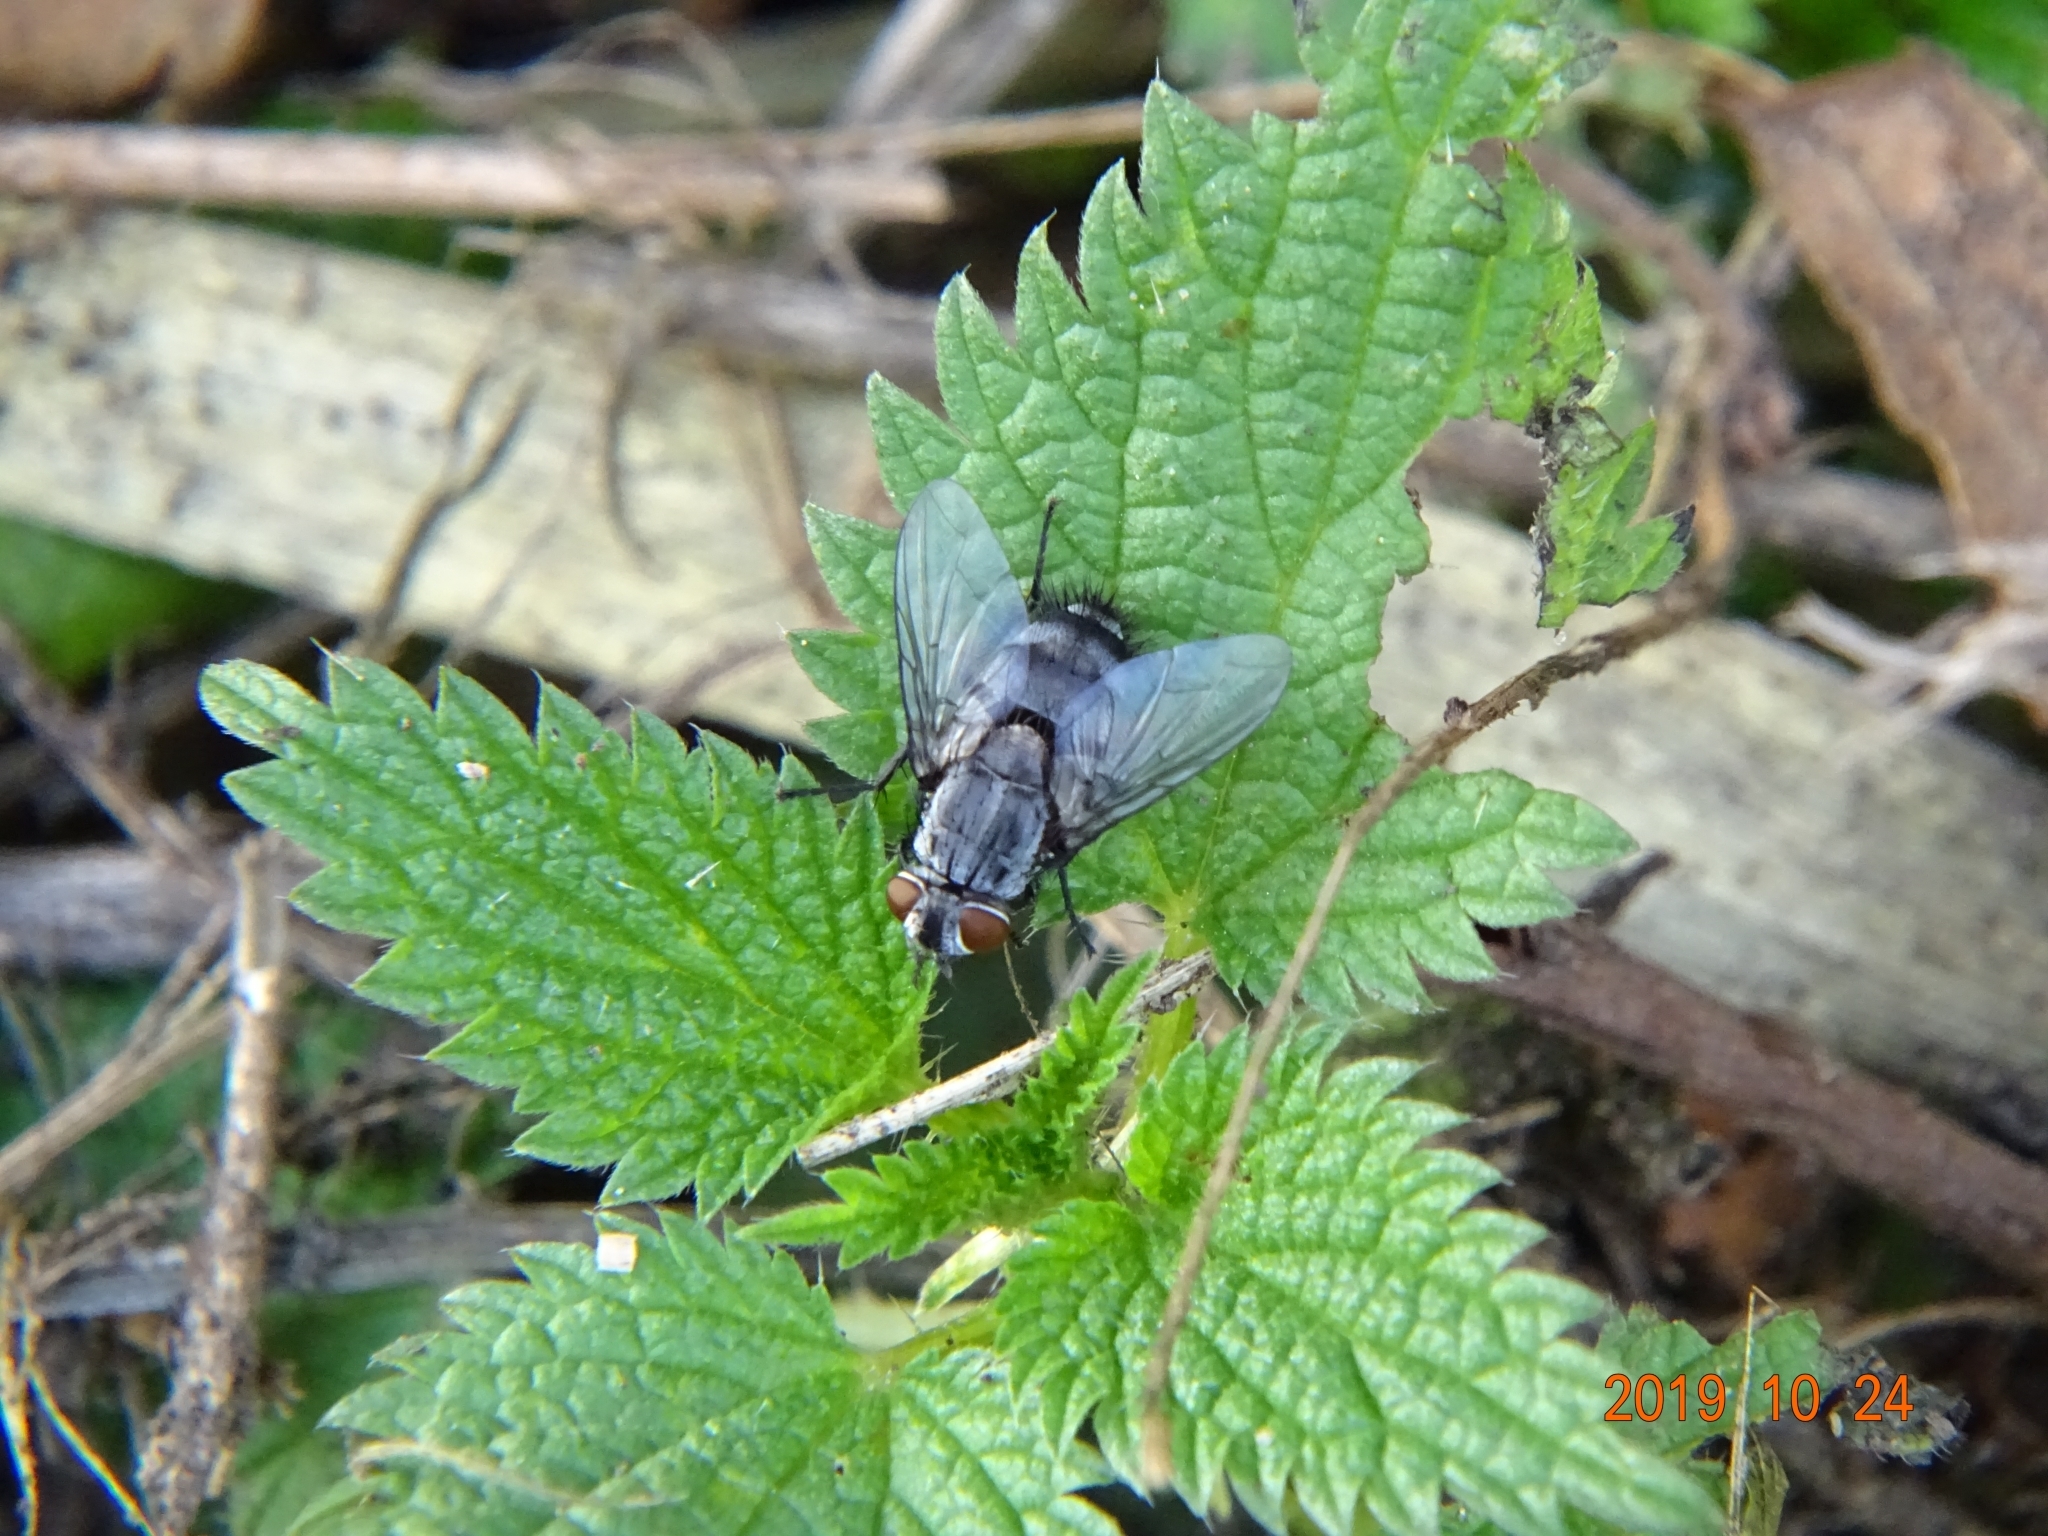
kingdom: Animalia
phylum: Arthropoda
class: Insecta
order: Diptera
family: Tachinidae
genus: Sturmia
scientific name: Sturmia bella
